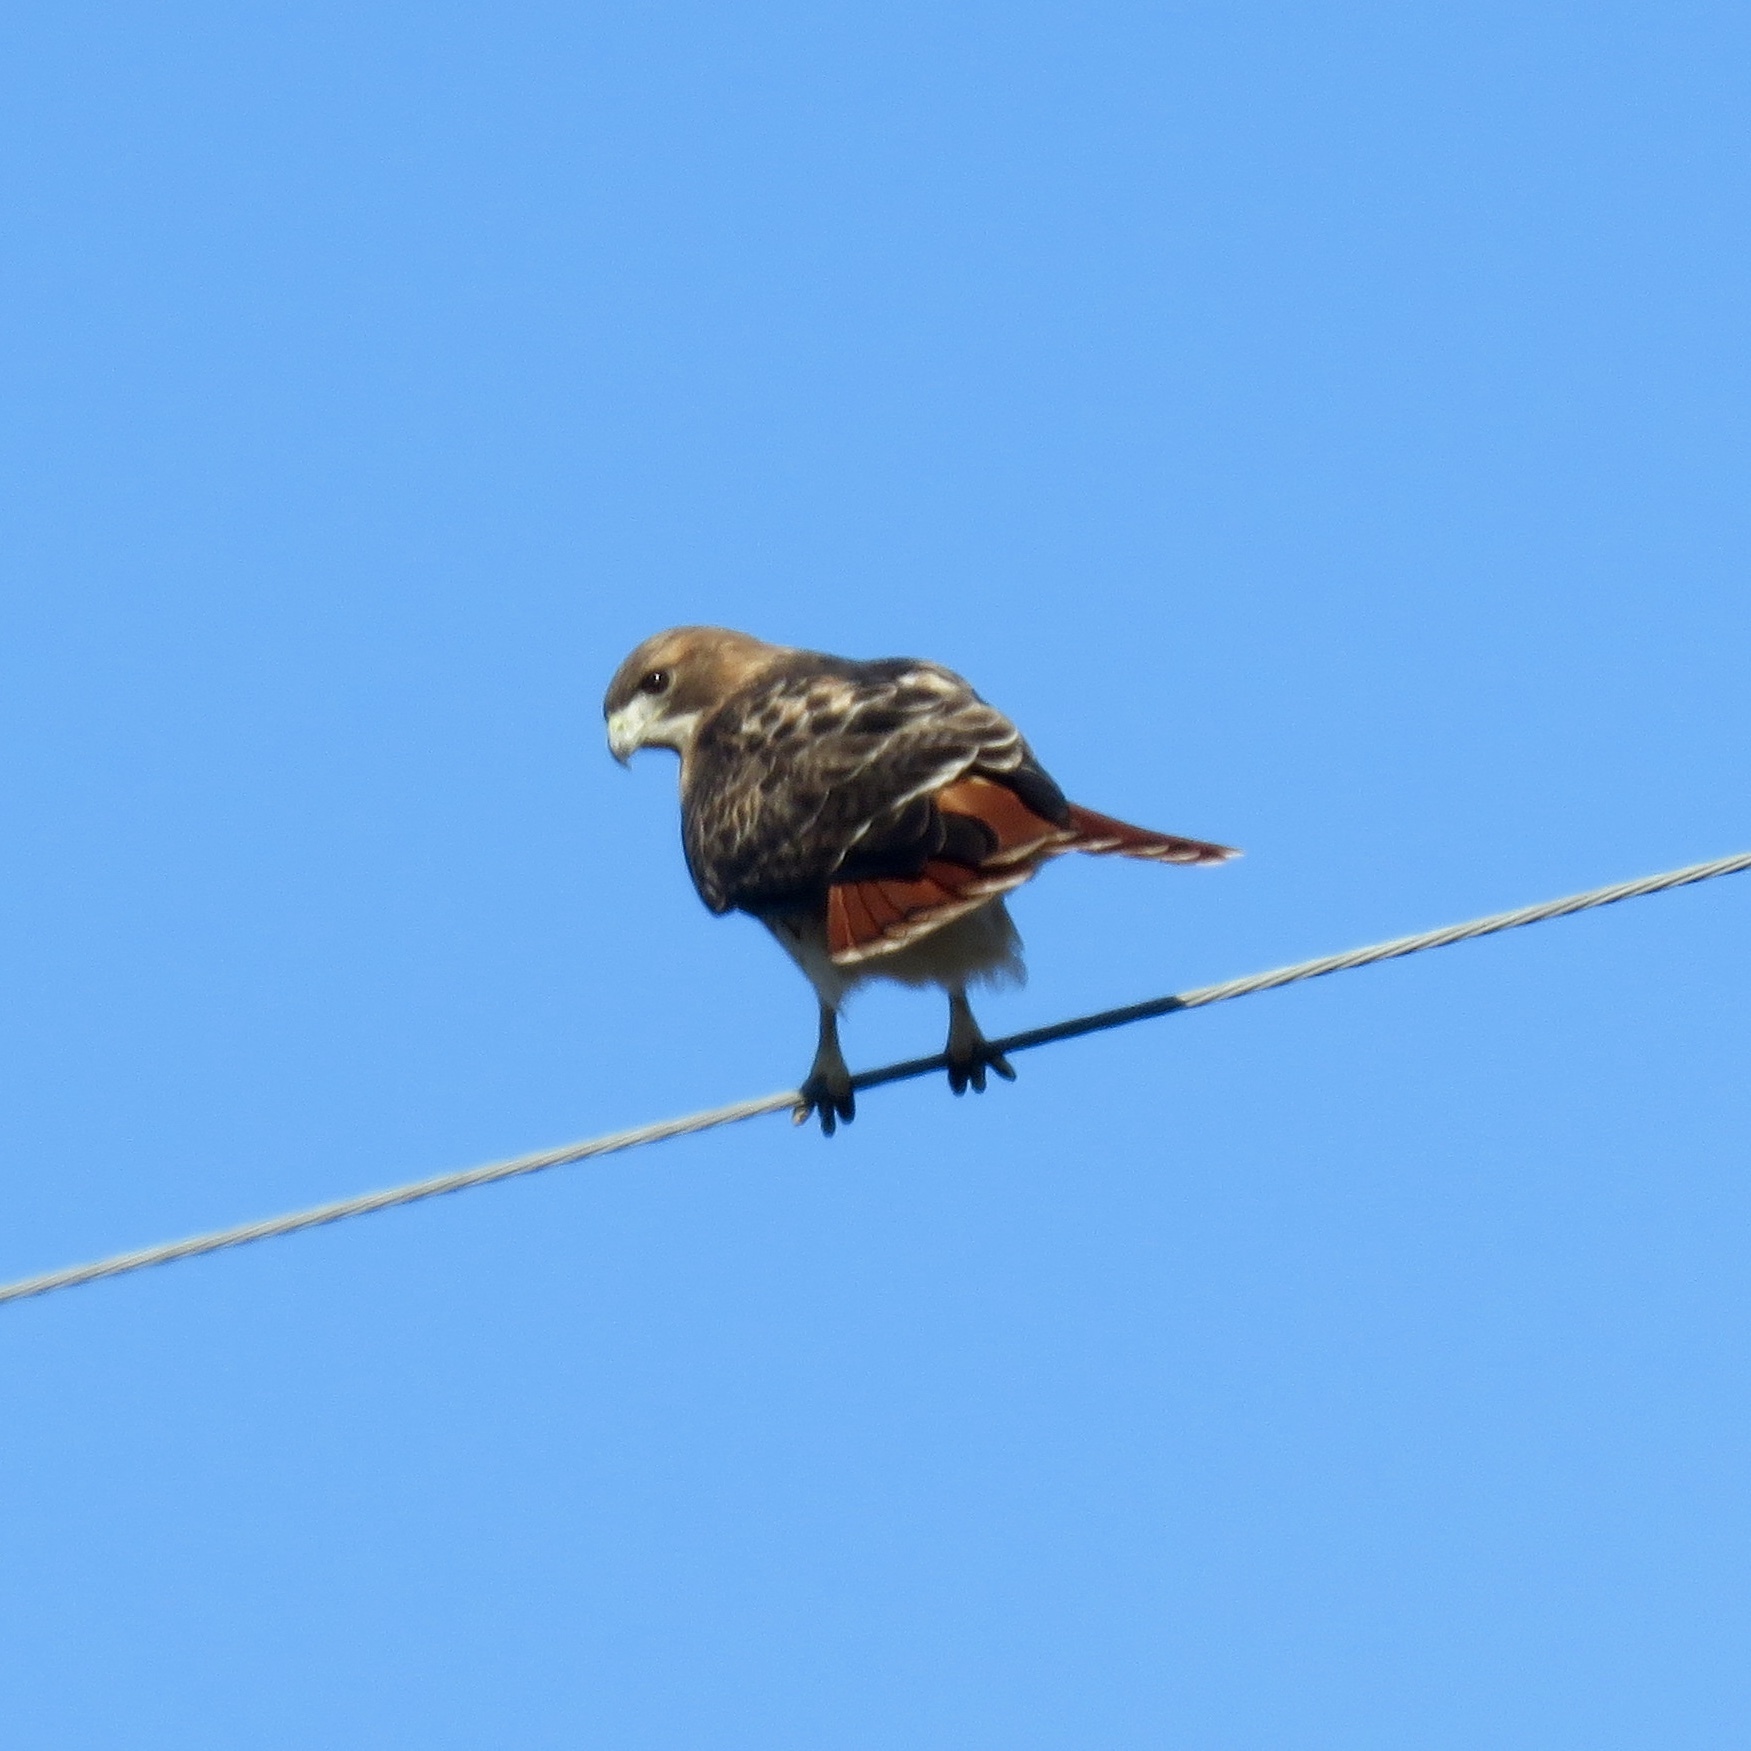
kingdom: Animalia
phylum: Chordata
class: Aves
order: Accipitriformes
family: Accipitridae
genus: Buteo
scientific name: Buteo jamaicensis
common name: Red-tailed hawk
